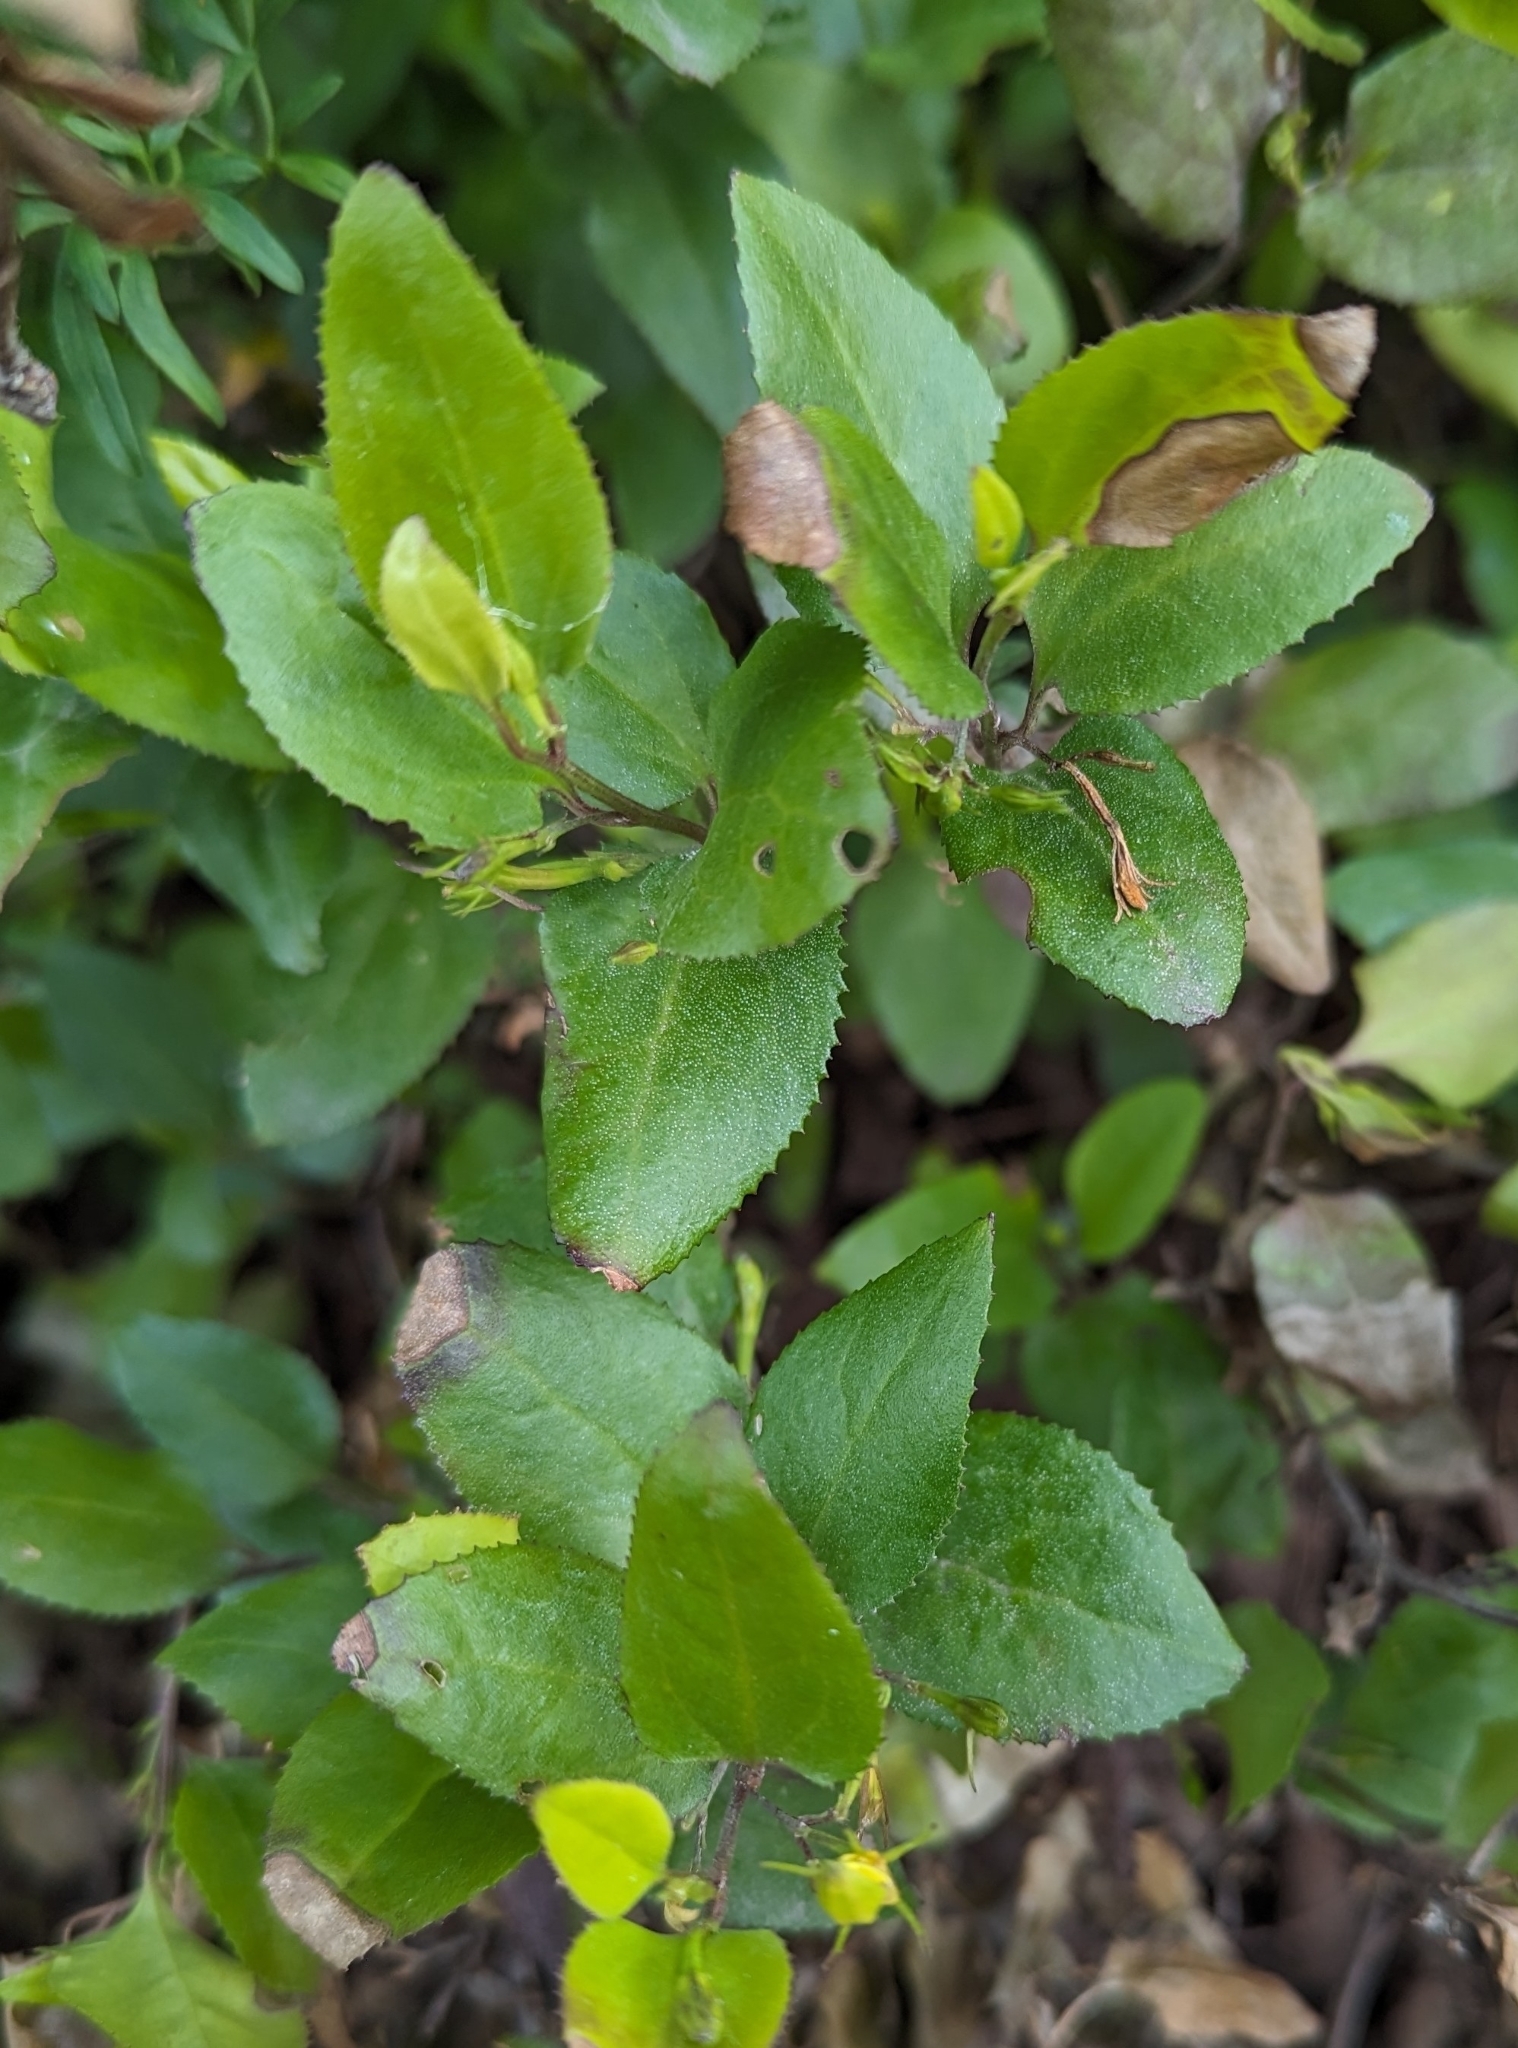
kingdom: Plantae
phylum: Tracheophyta
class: Magnoliopsida
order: Asterales
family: Goodeniaceae
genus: Goodenia
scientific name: Goodenia ovata
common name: Hop goodenia
